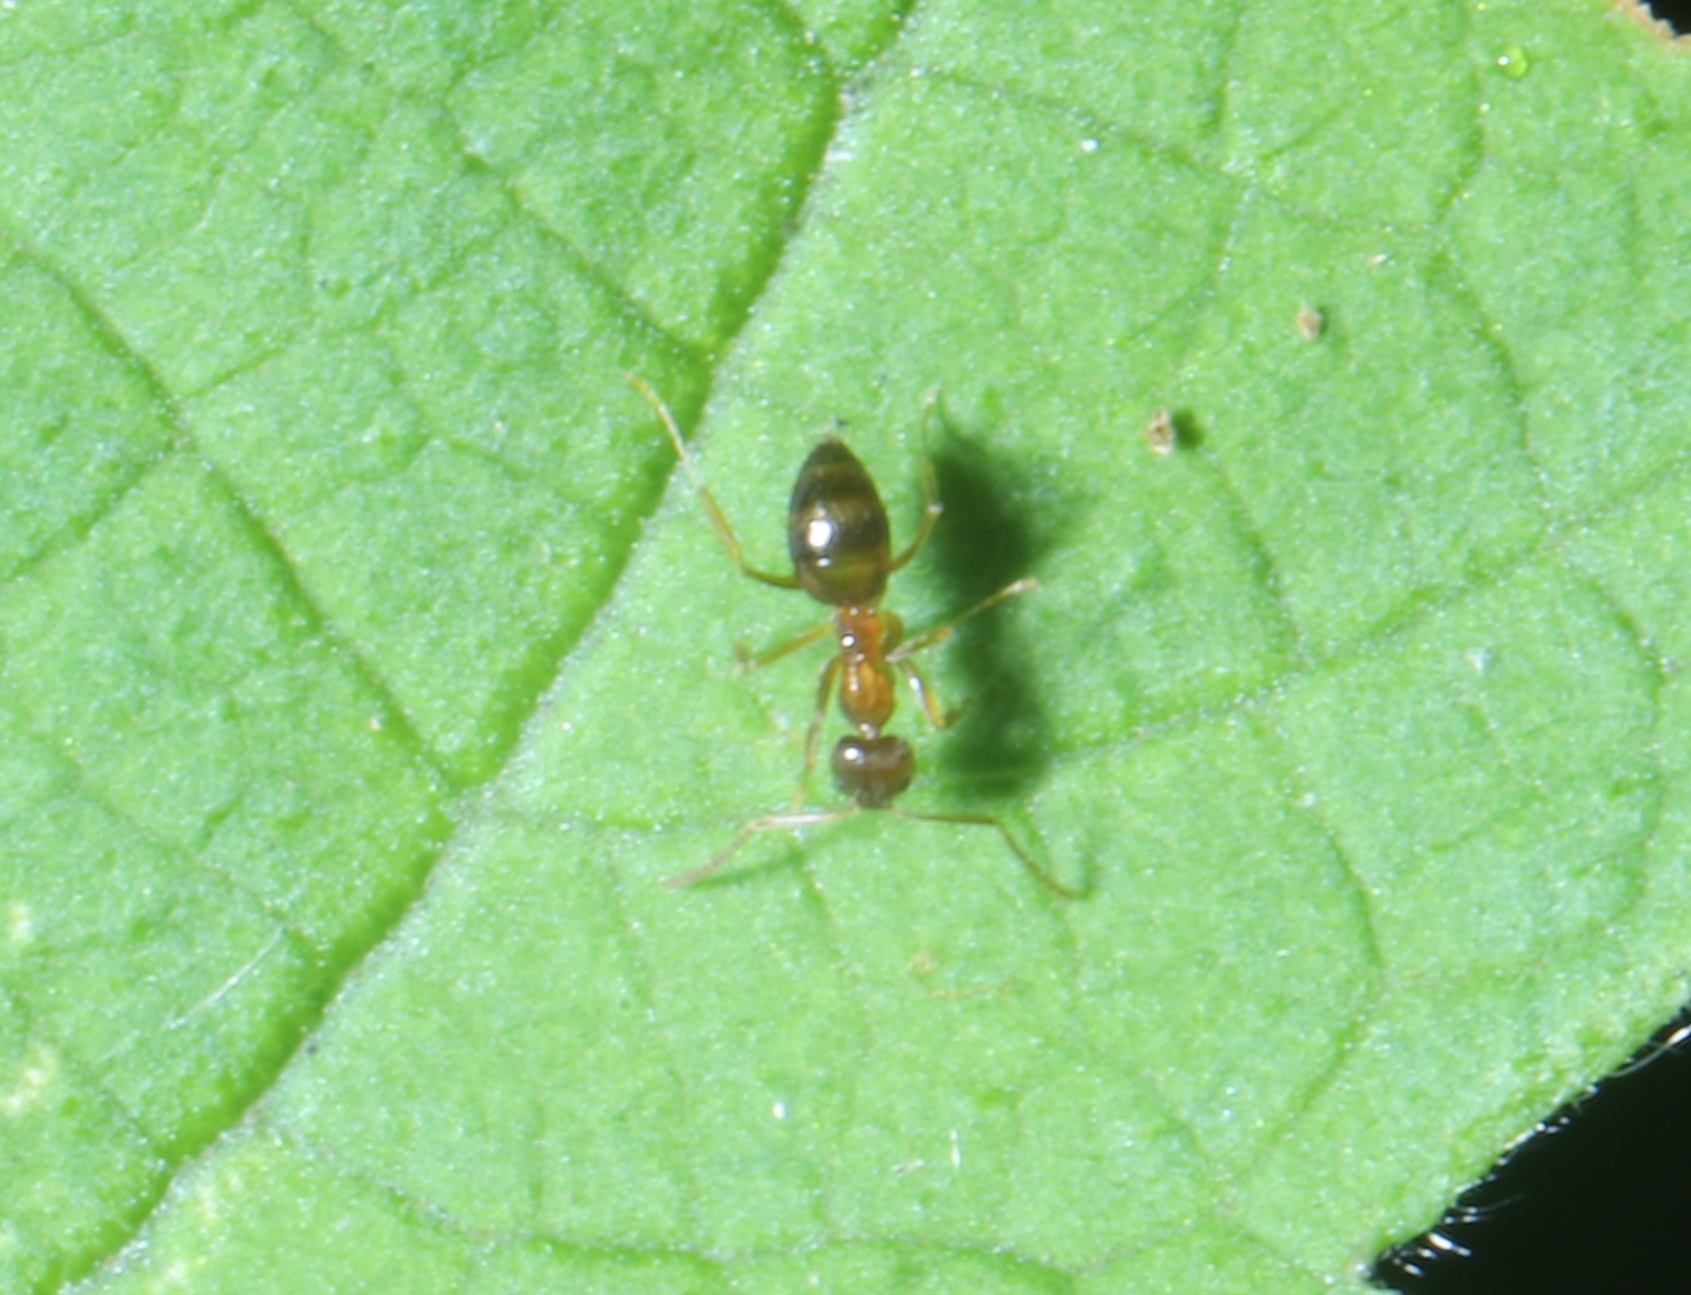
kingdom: Animalia
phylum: Arthropoda
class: Insecta
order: Hymenoptera
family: Formicidae
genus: Paratrechina
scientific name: Paratrechina flavipes
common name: Eastern asian formicine ant
